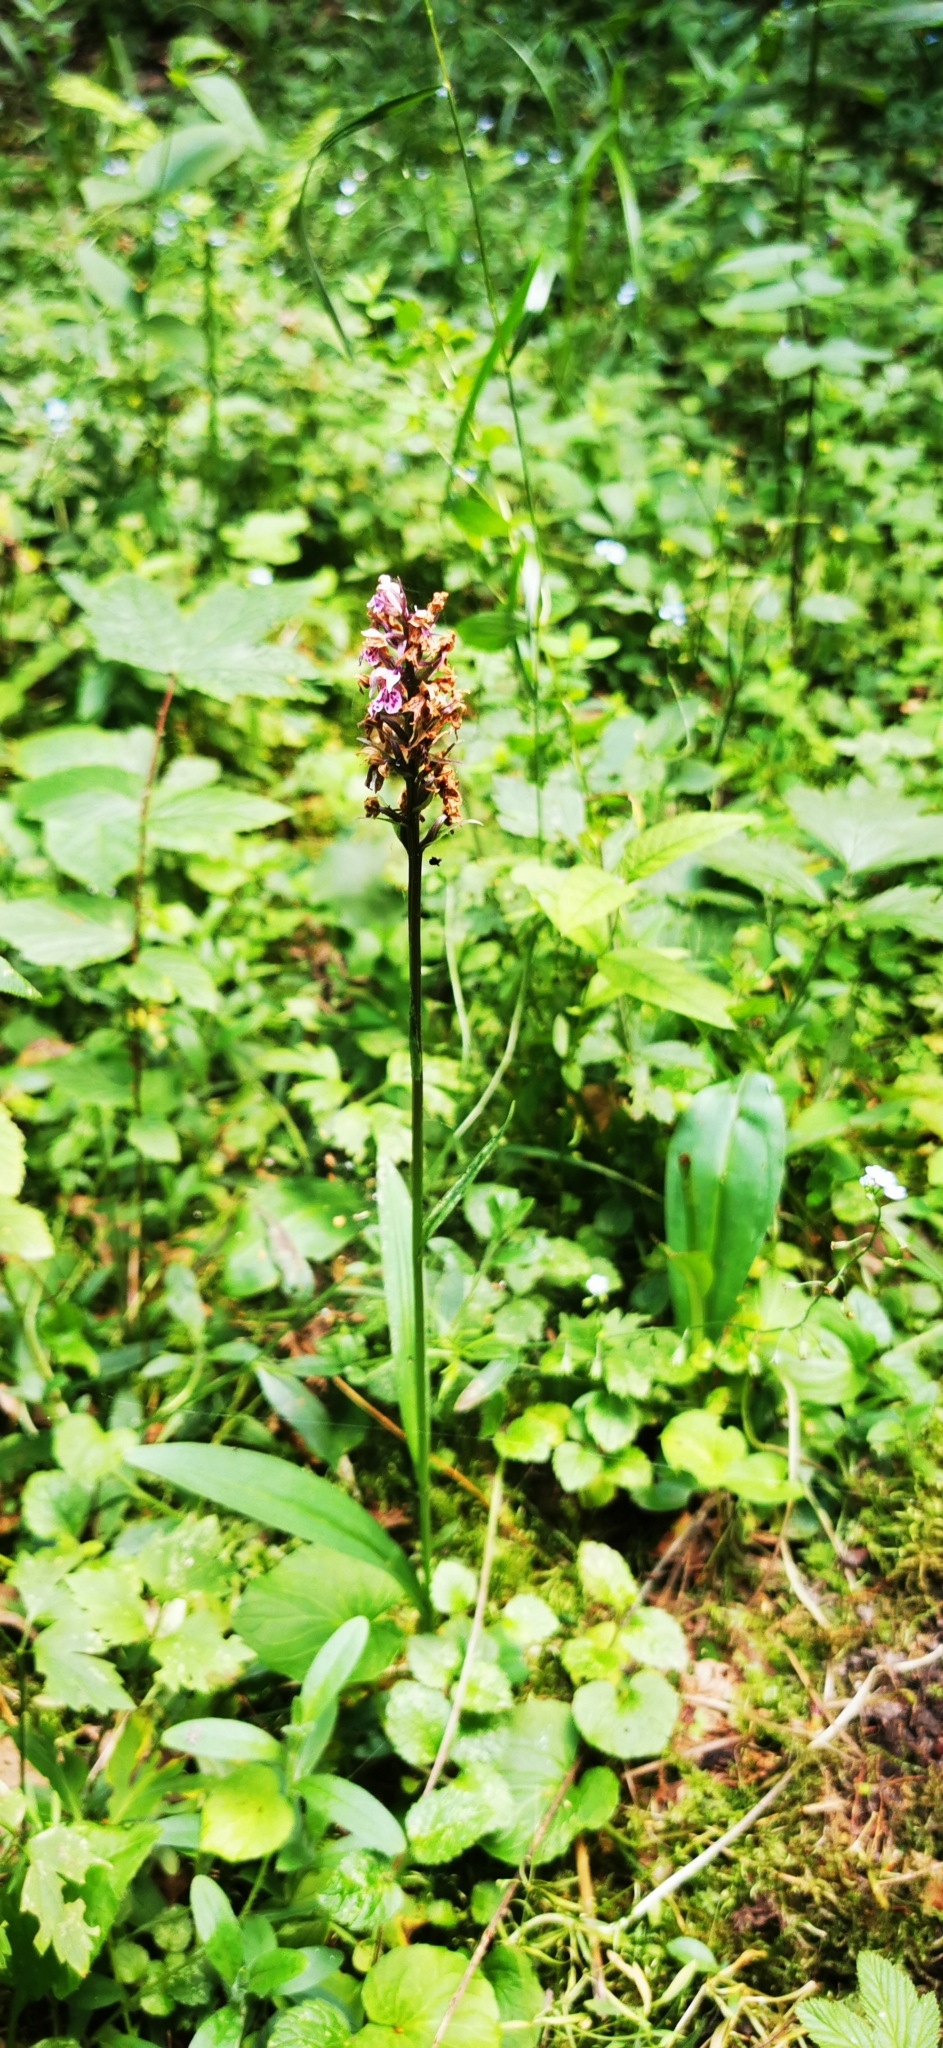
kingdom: Plantae
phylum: Tracheophyta
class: Liliopsida
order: Asparagales
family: Orchidaceae
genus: Dactylorhiza
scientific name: Dactylorhiza maculata
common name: Heath spotted-orchid
